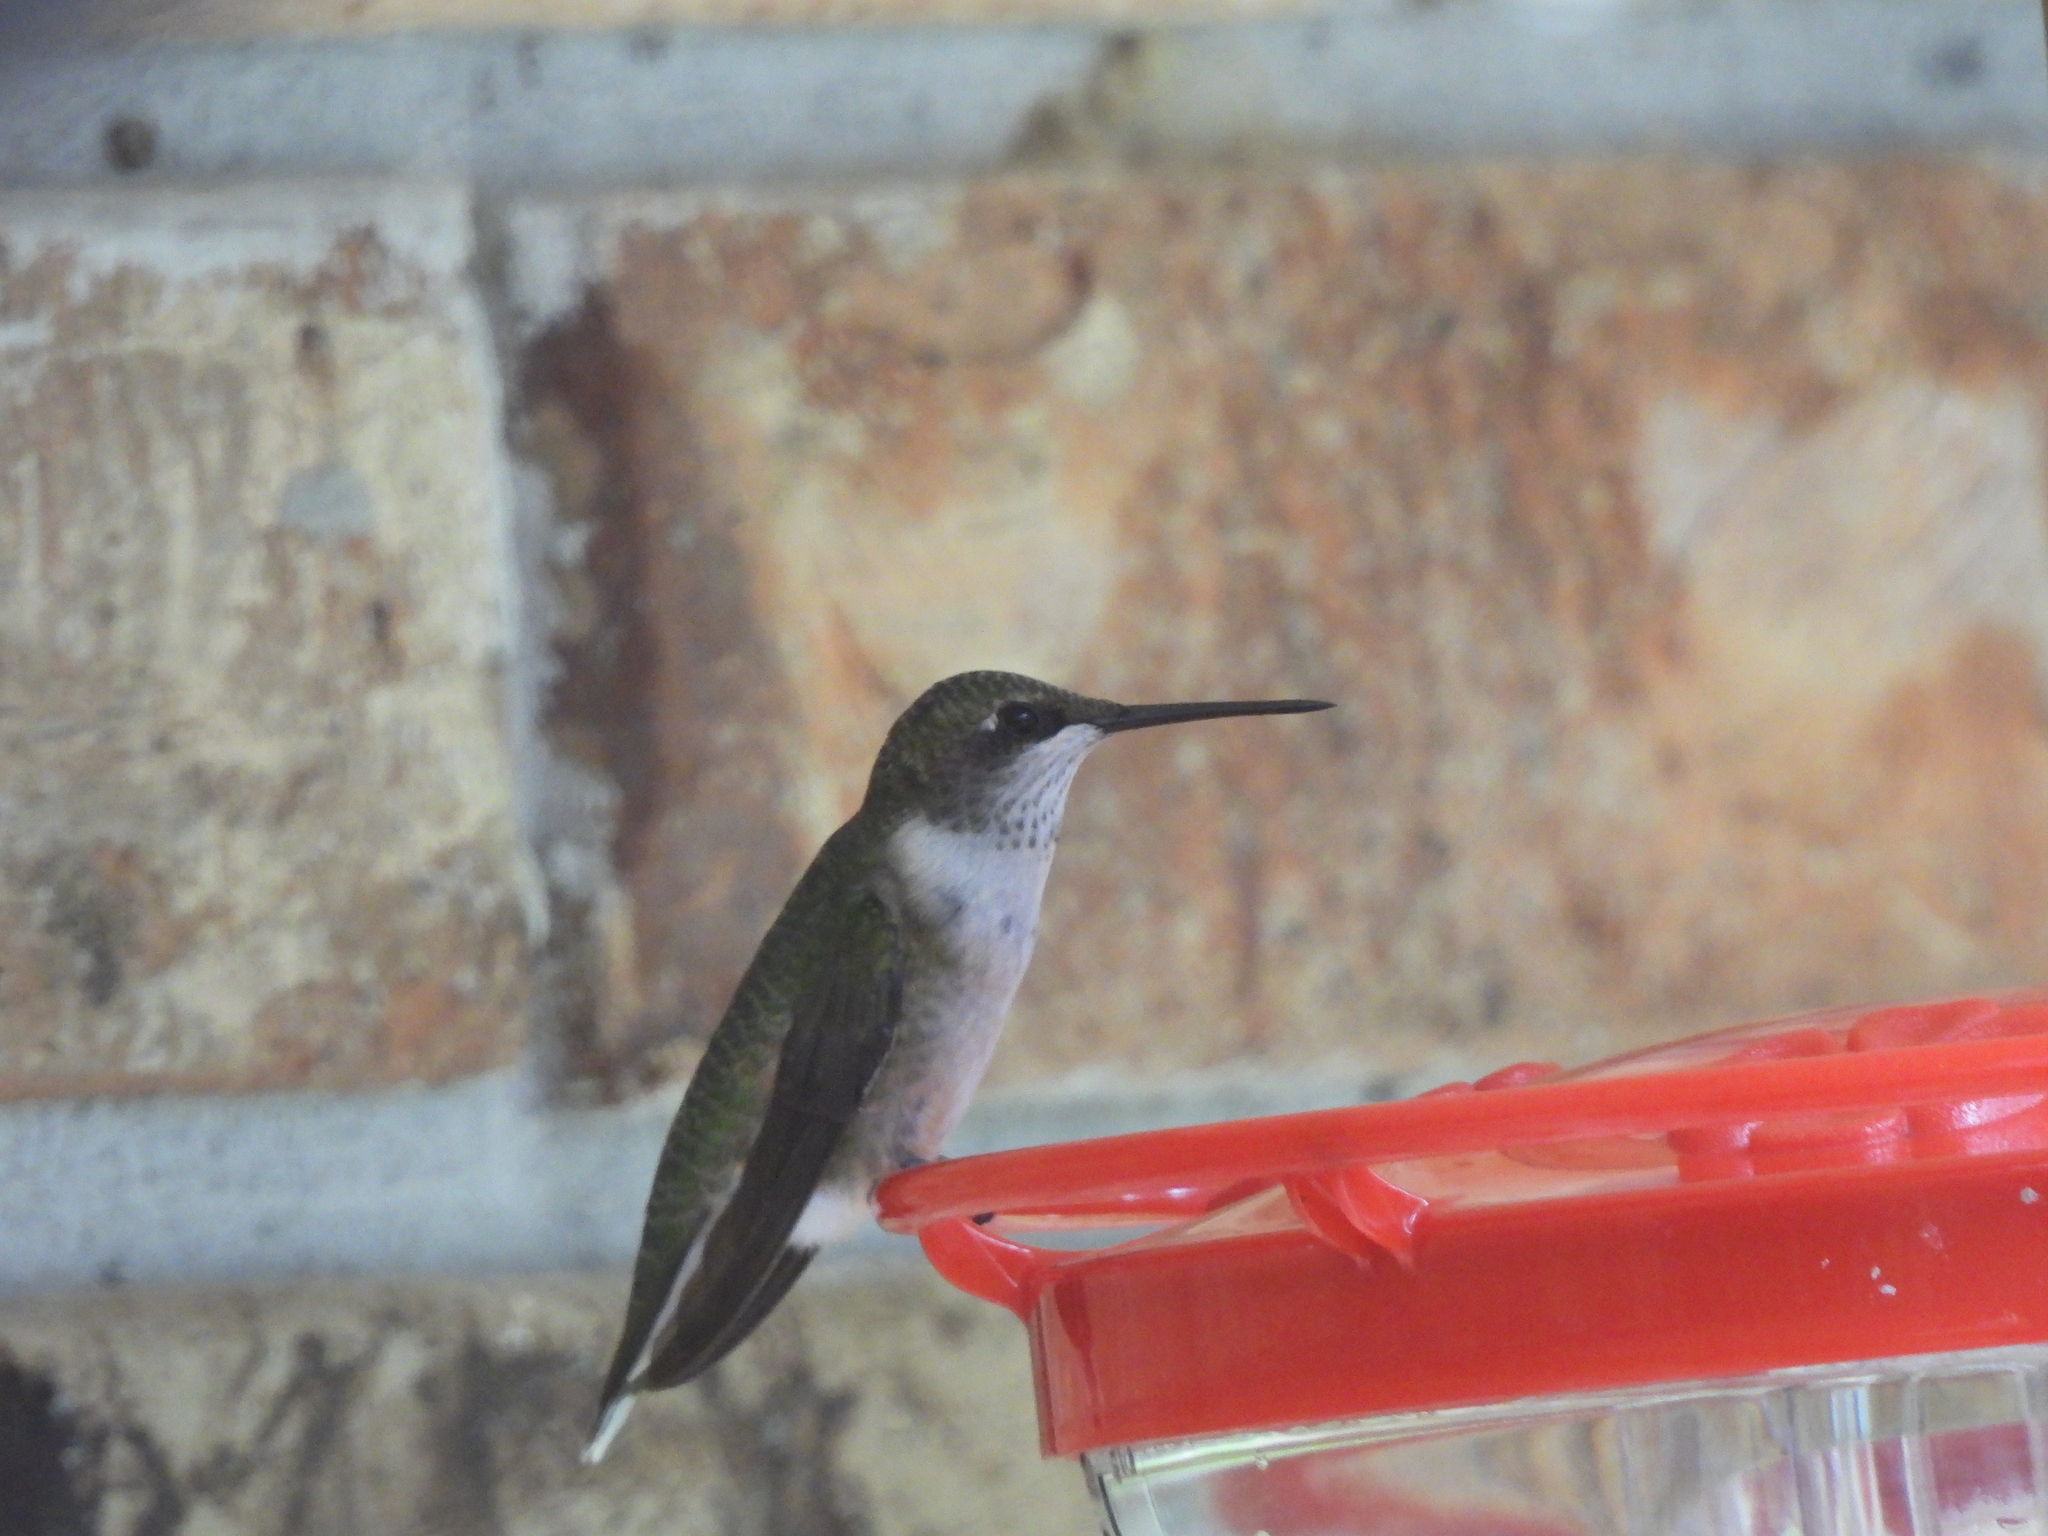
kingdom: Animalia
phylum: Chordata
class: Aves
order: Apodiformes
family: Trochilidae
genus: Archilochus
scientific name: Archilochus colubris
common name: Ruby-throated hummingbird
